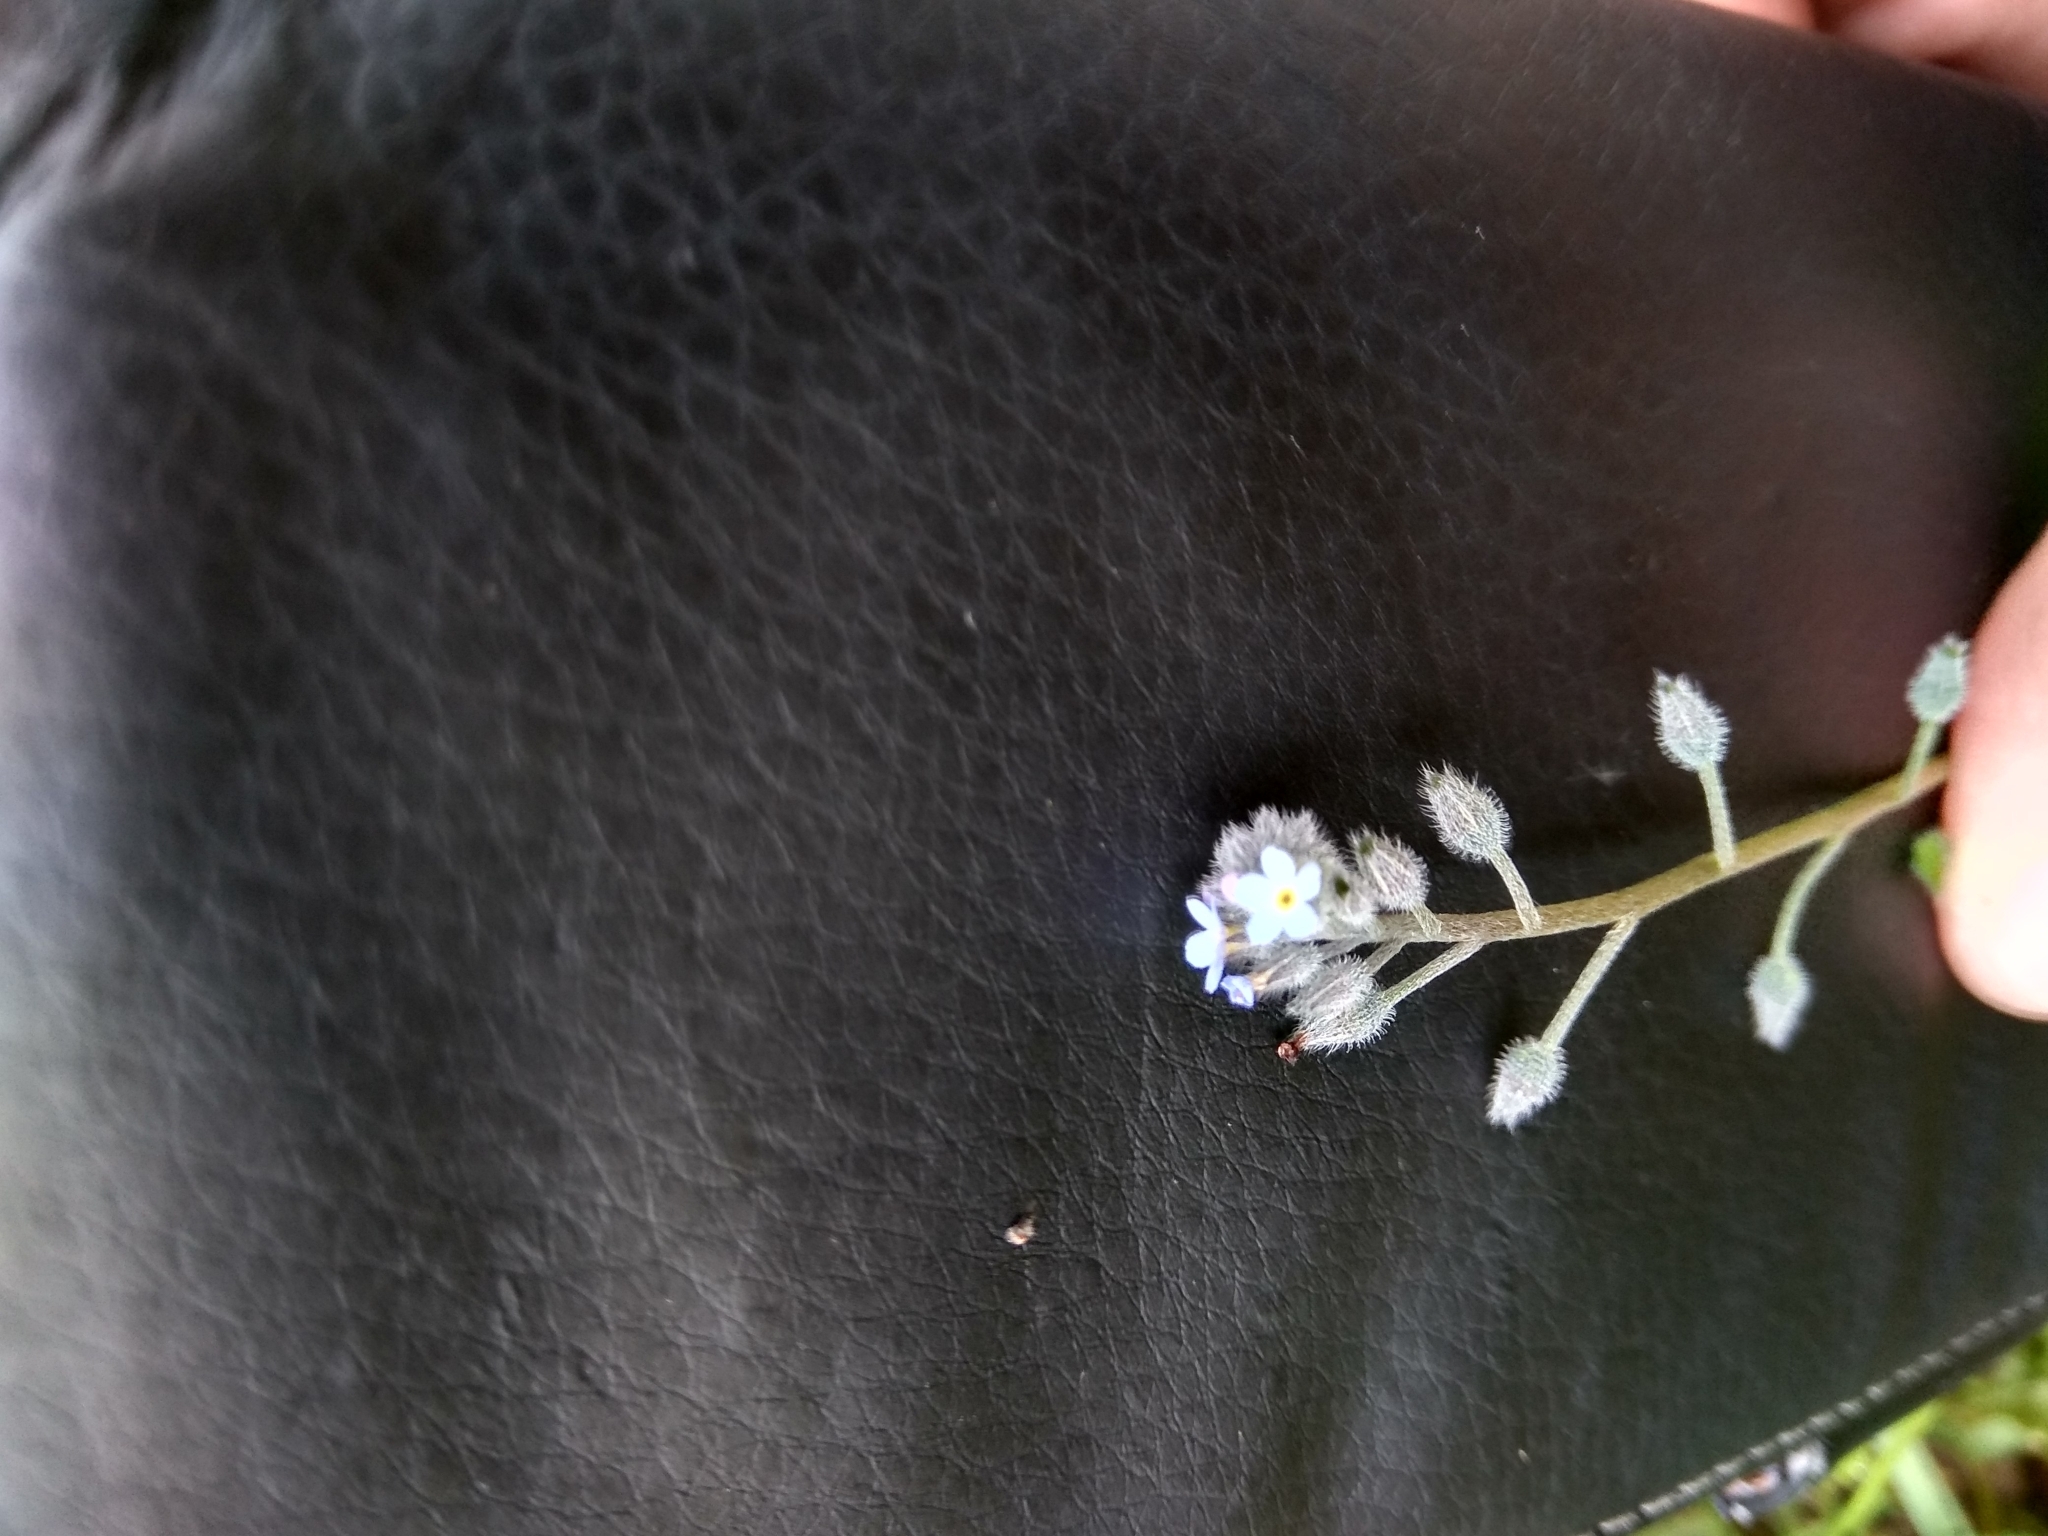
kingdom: Plantae
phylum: Tracheophyta
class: Magnoliopsida
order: Boraginales
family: Boraginaceae
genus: Myosotis
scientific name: Myosotis arvensis
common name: Field forget-me-not
